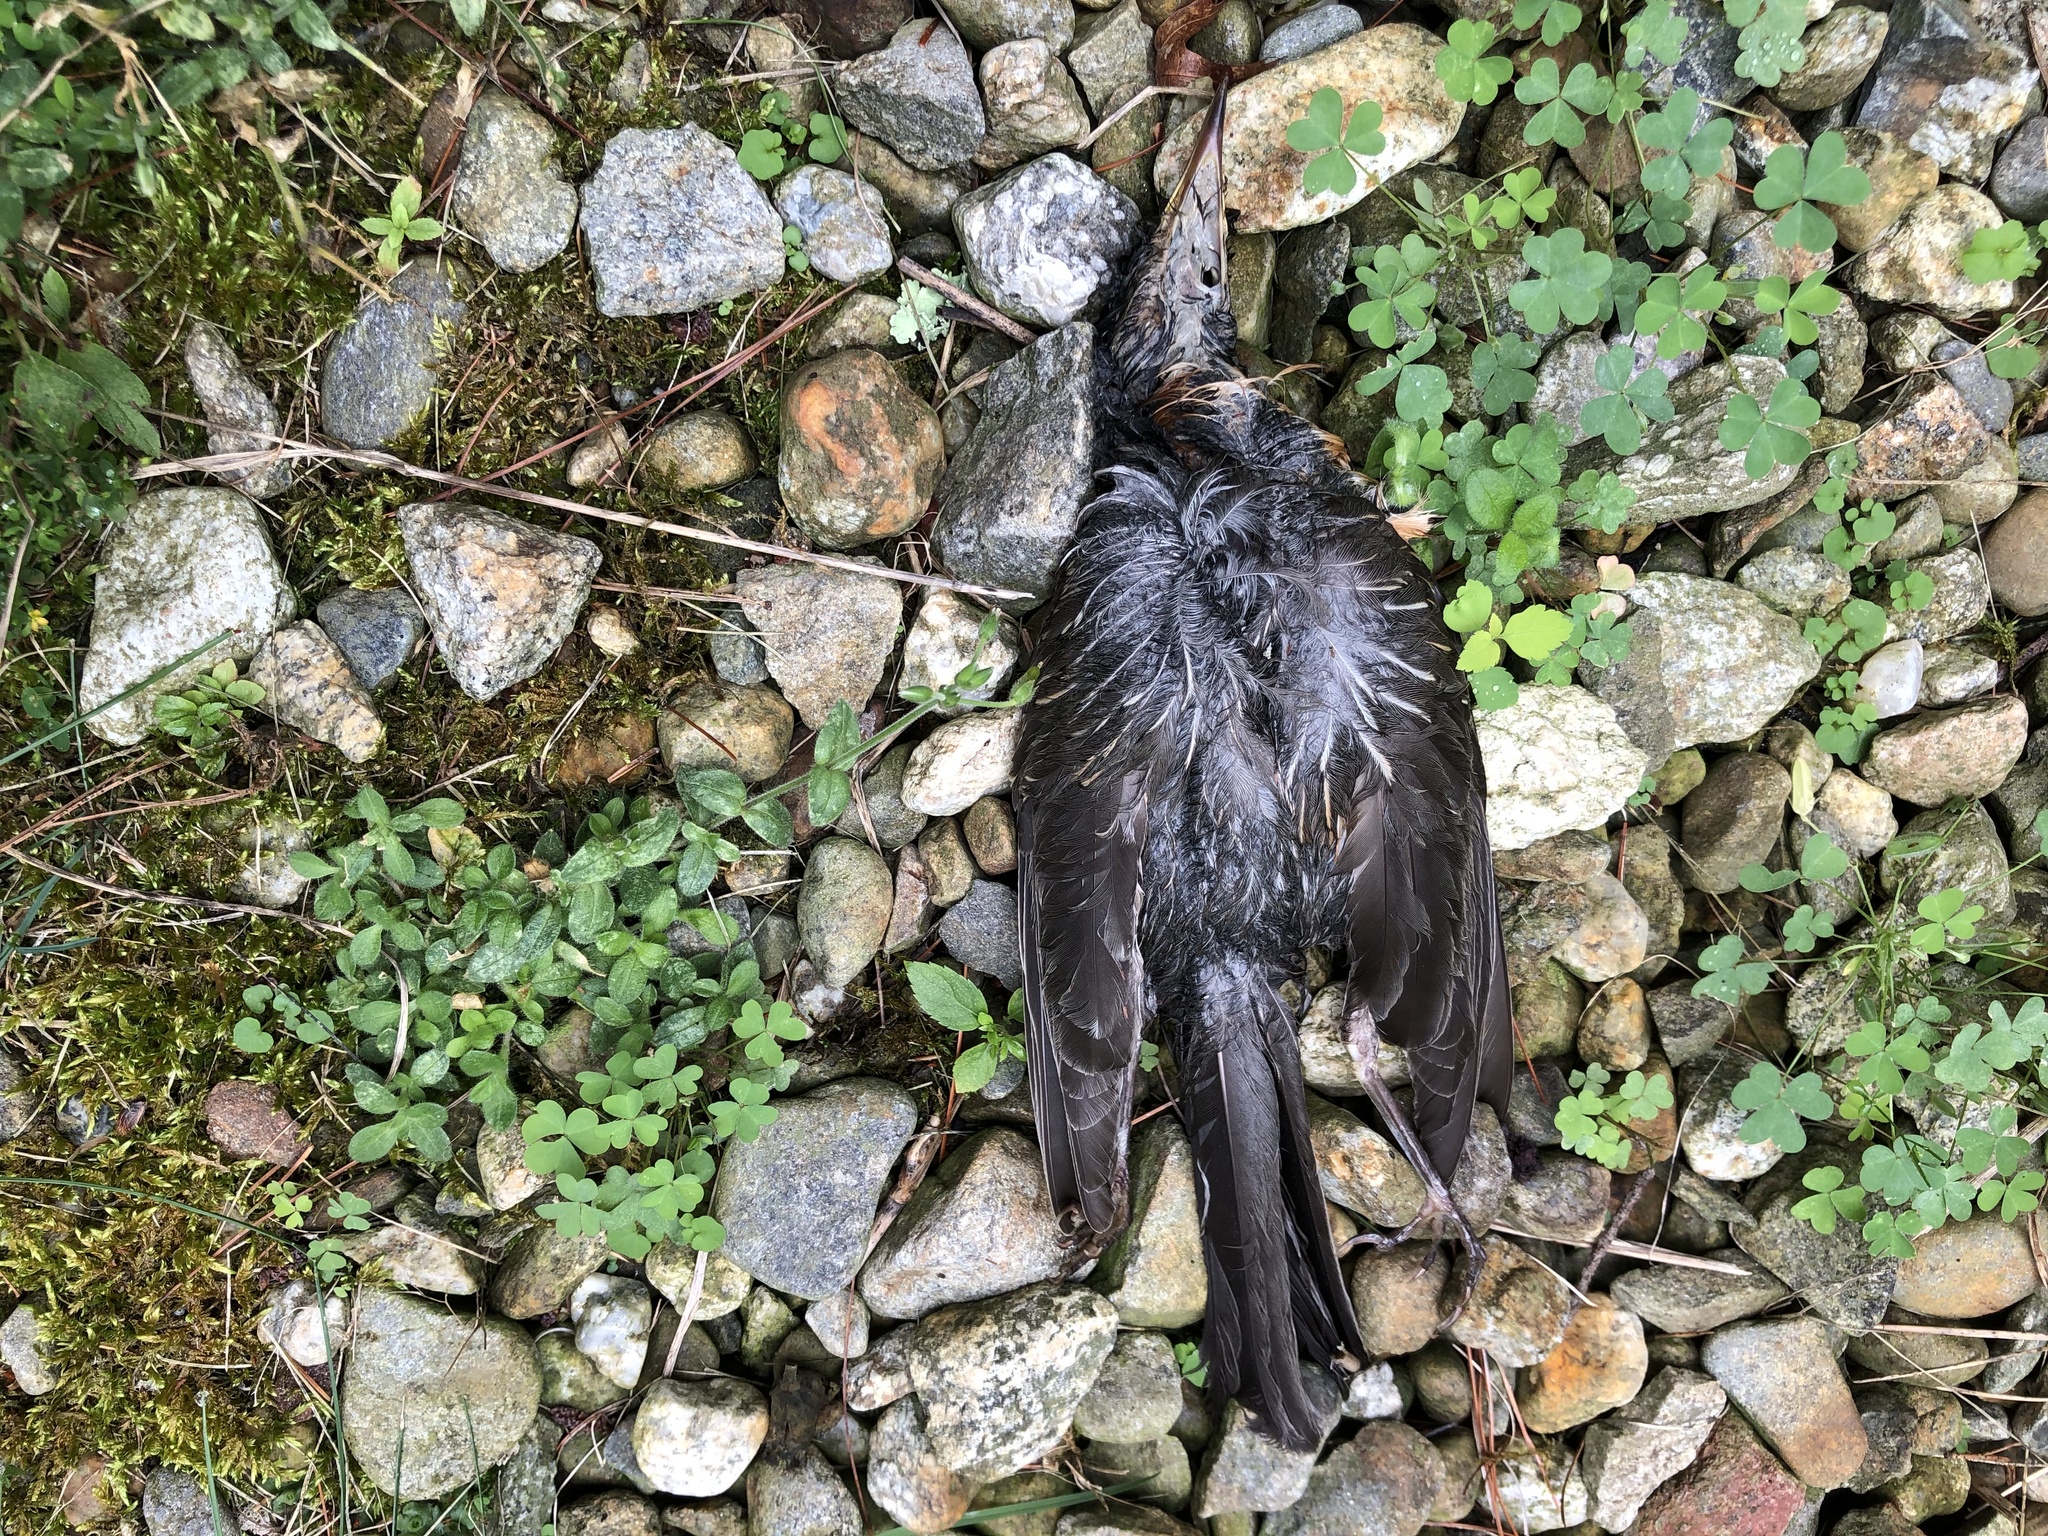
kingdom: Animalia
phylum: Chordata
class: Aves
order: Passeriformes
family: Turdidae
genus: Turdus
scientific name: Turdus migratorius
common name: American robin
